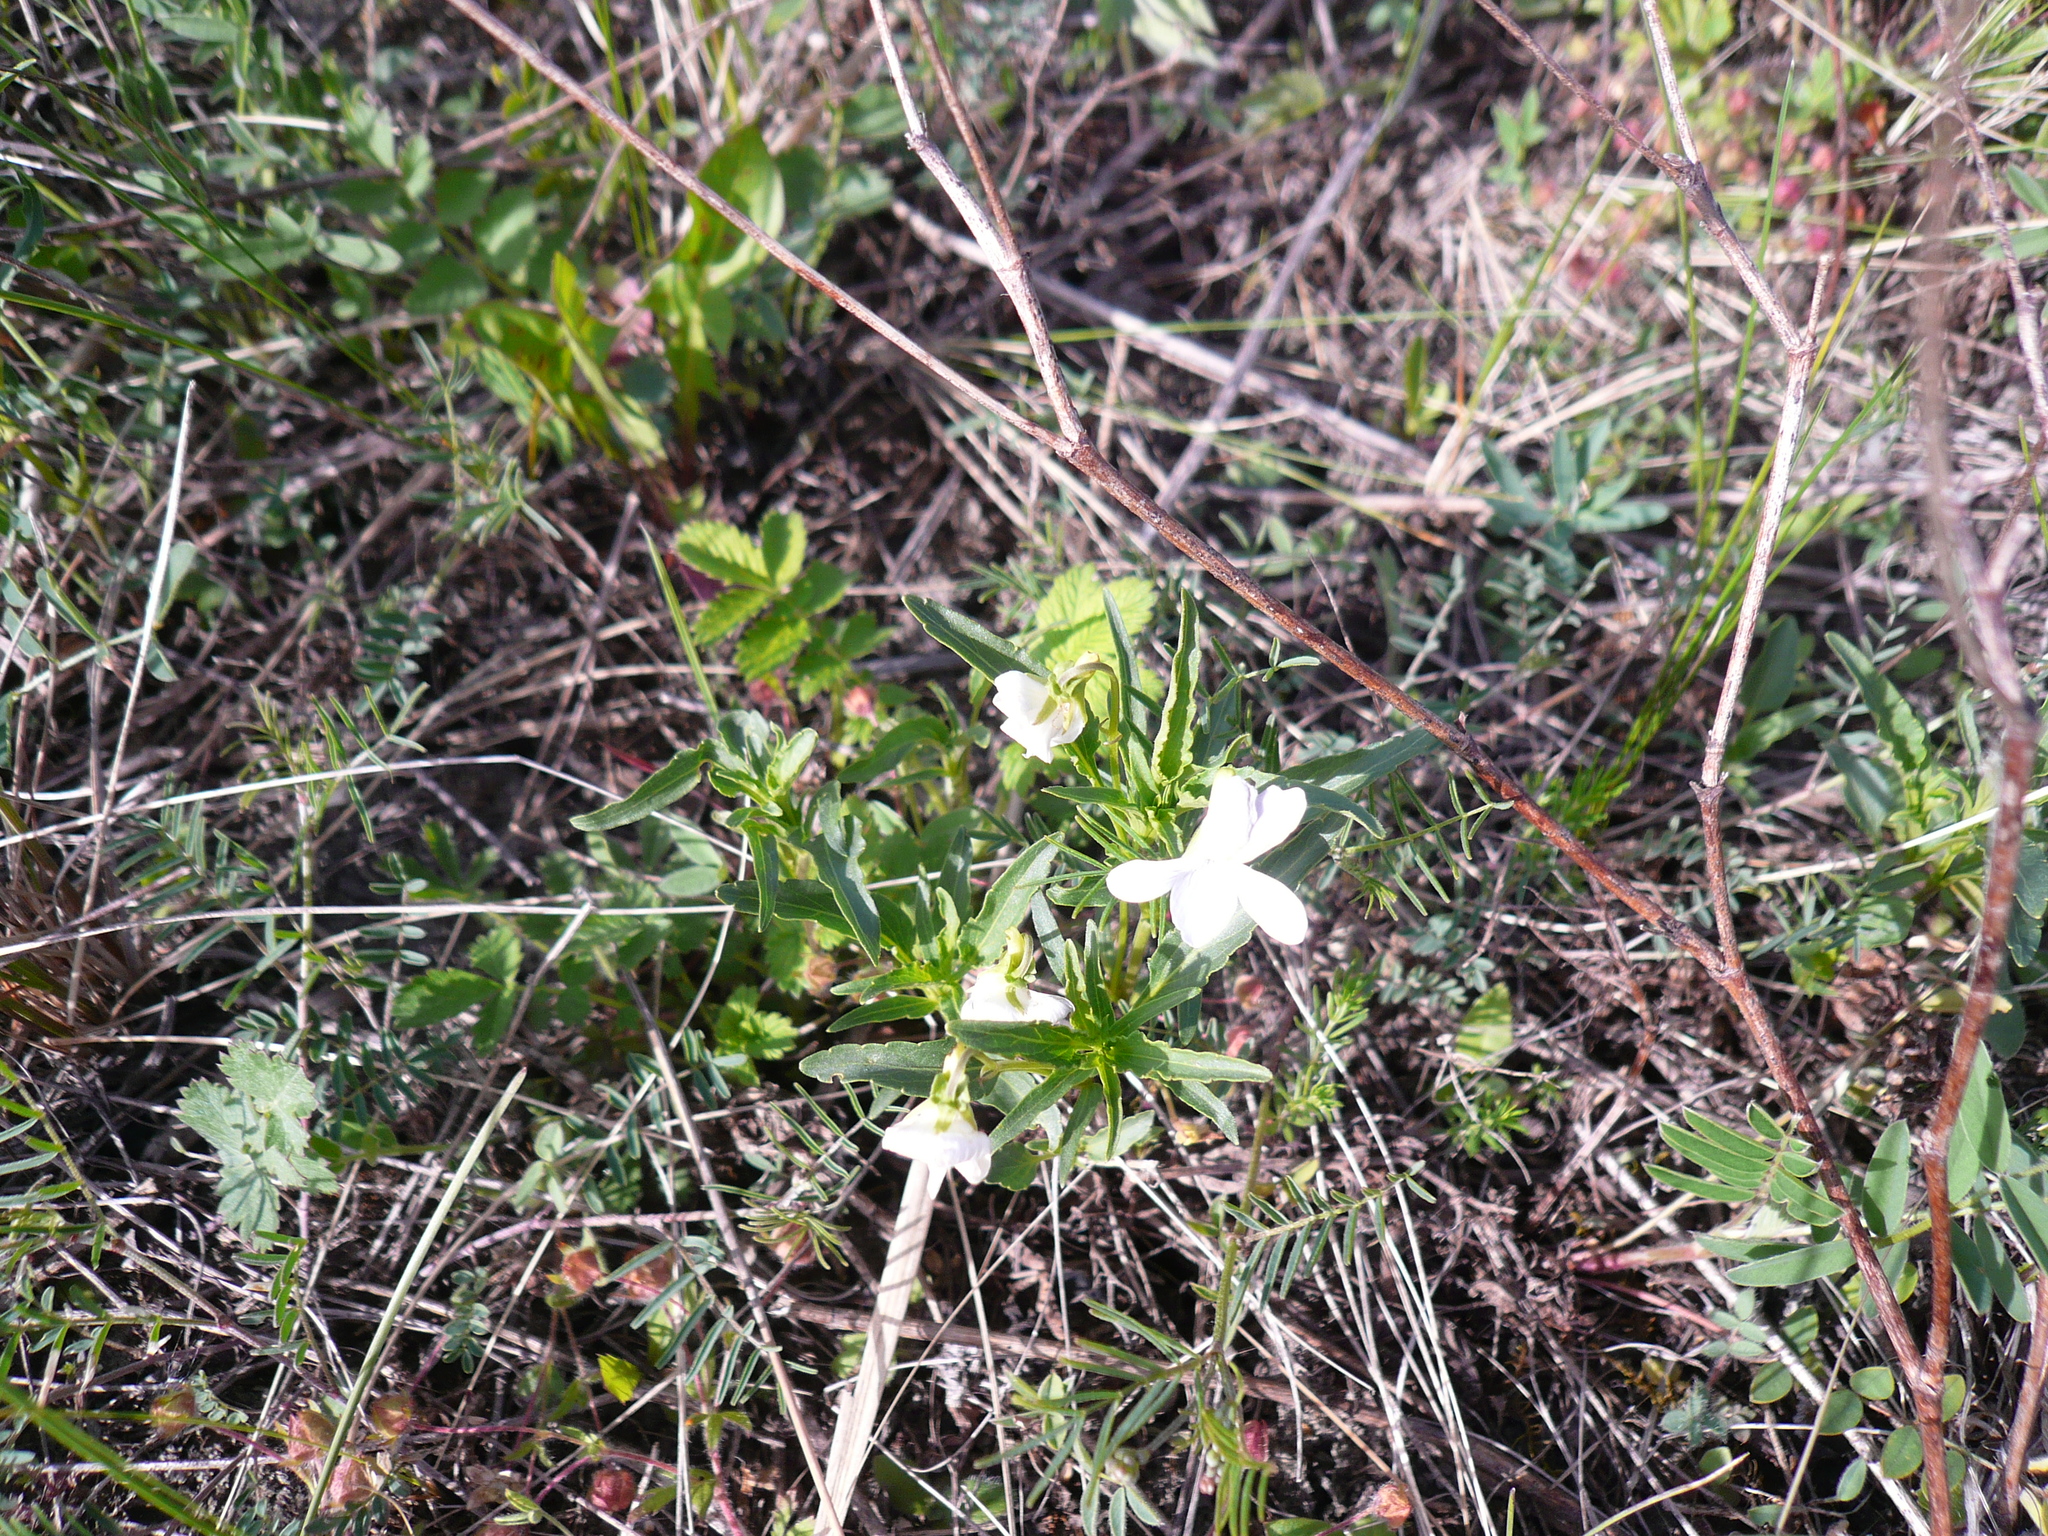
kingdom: Plantae
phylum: Tracheophyta
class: Magnoliopsida
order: Malpighiales
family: Violaceae
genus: Viola
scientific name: Viola pumila
